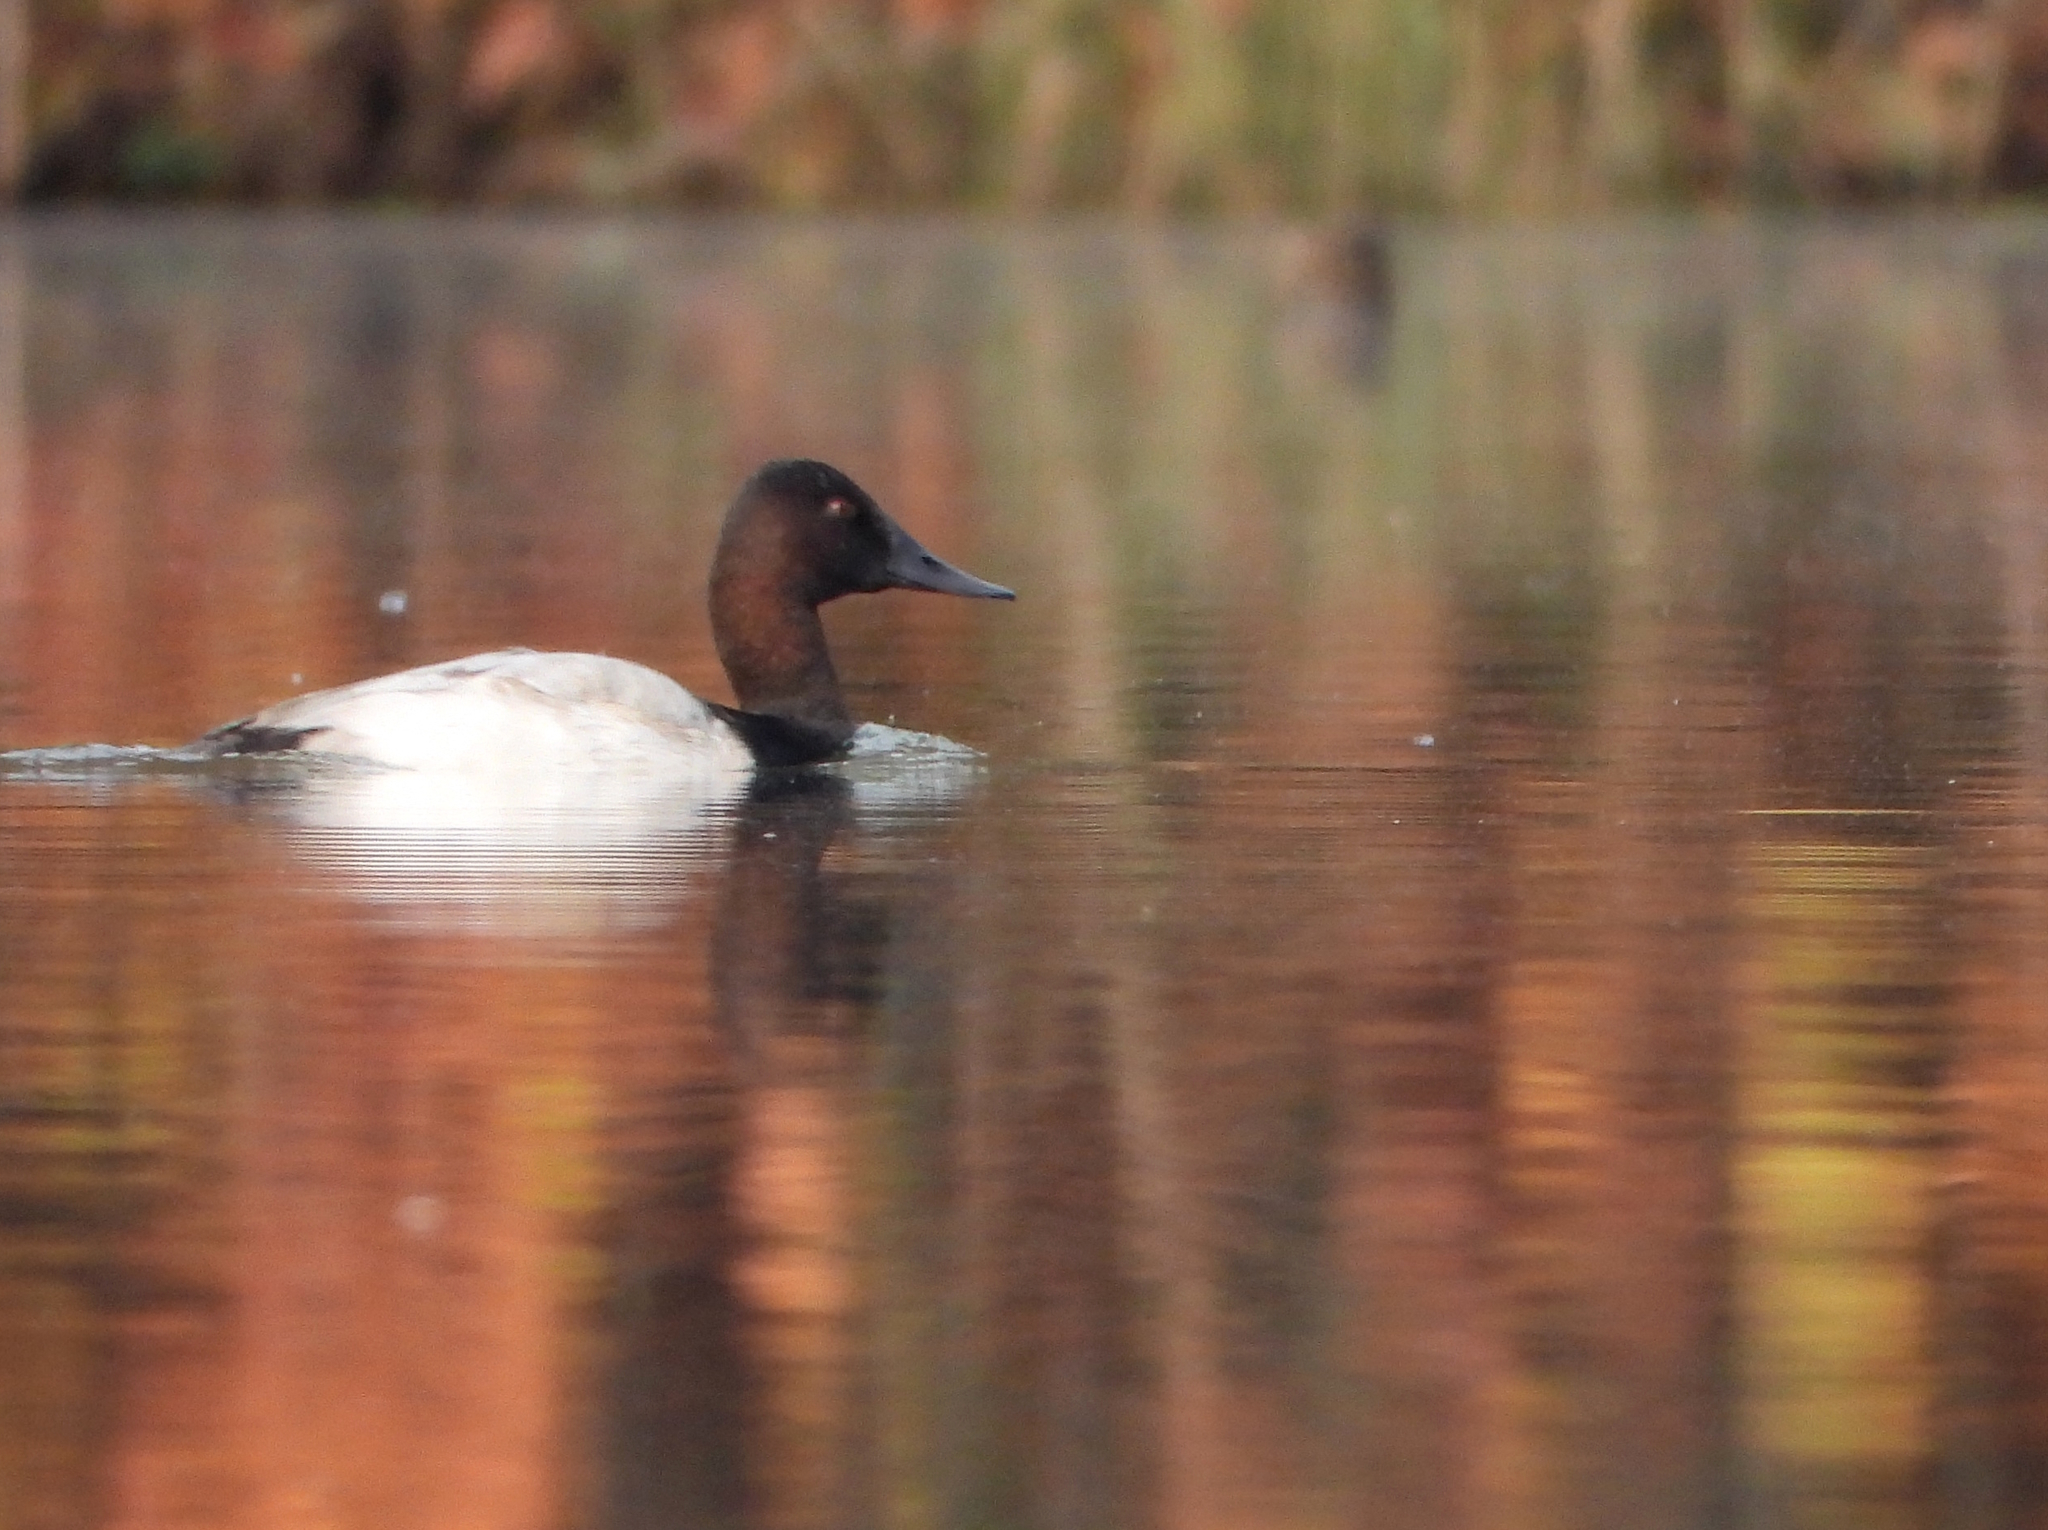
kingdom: Animalia
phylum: Chordata
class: Aves
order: Anseriformes
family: Anatidae
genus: Aythya
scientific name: Aythya valisineria
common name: Canvasback
